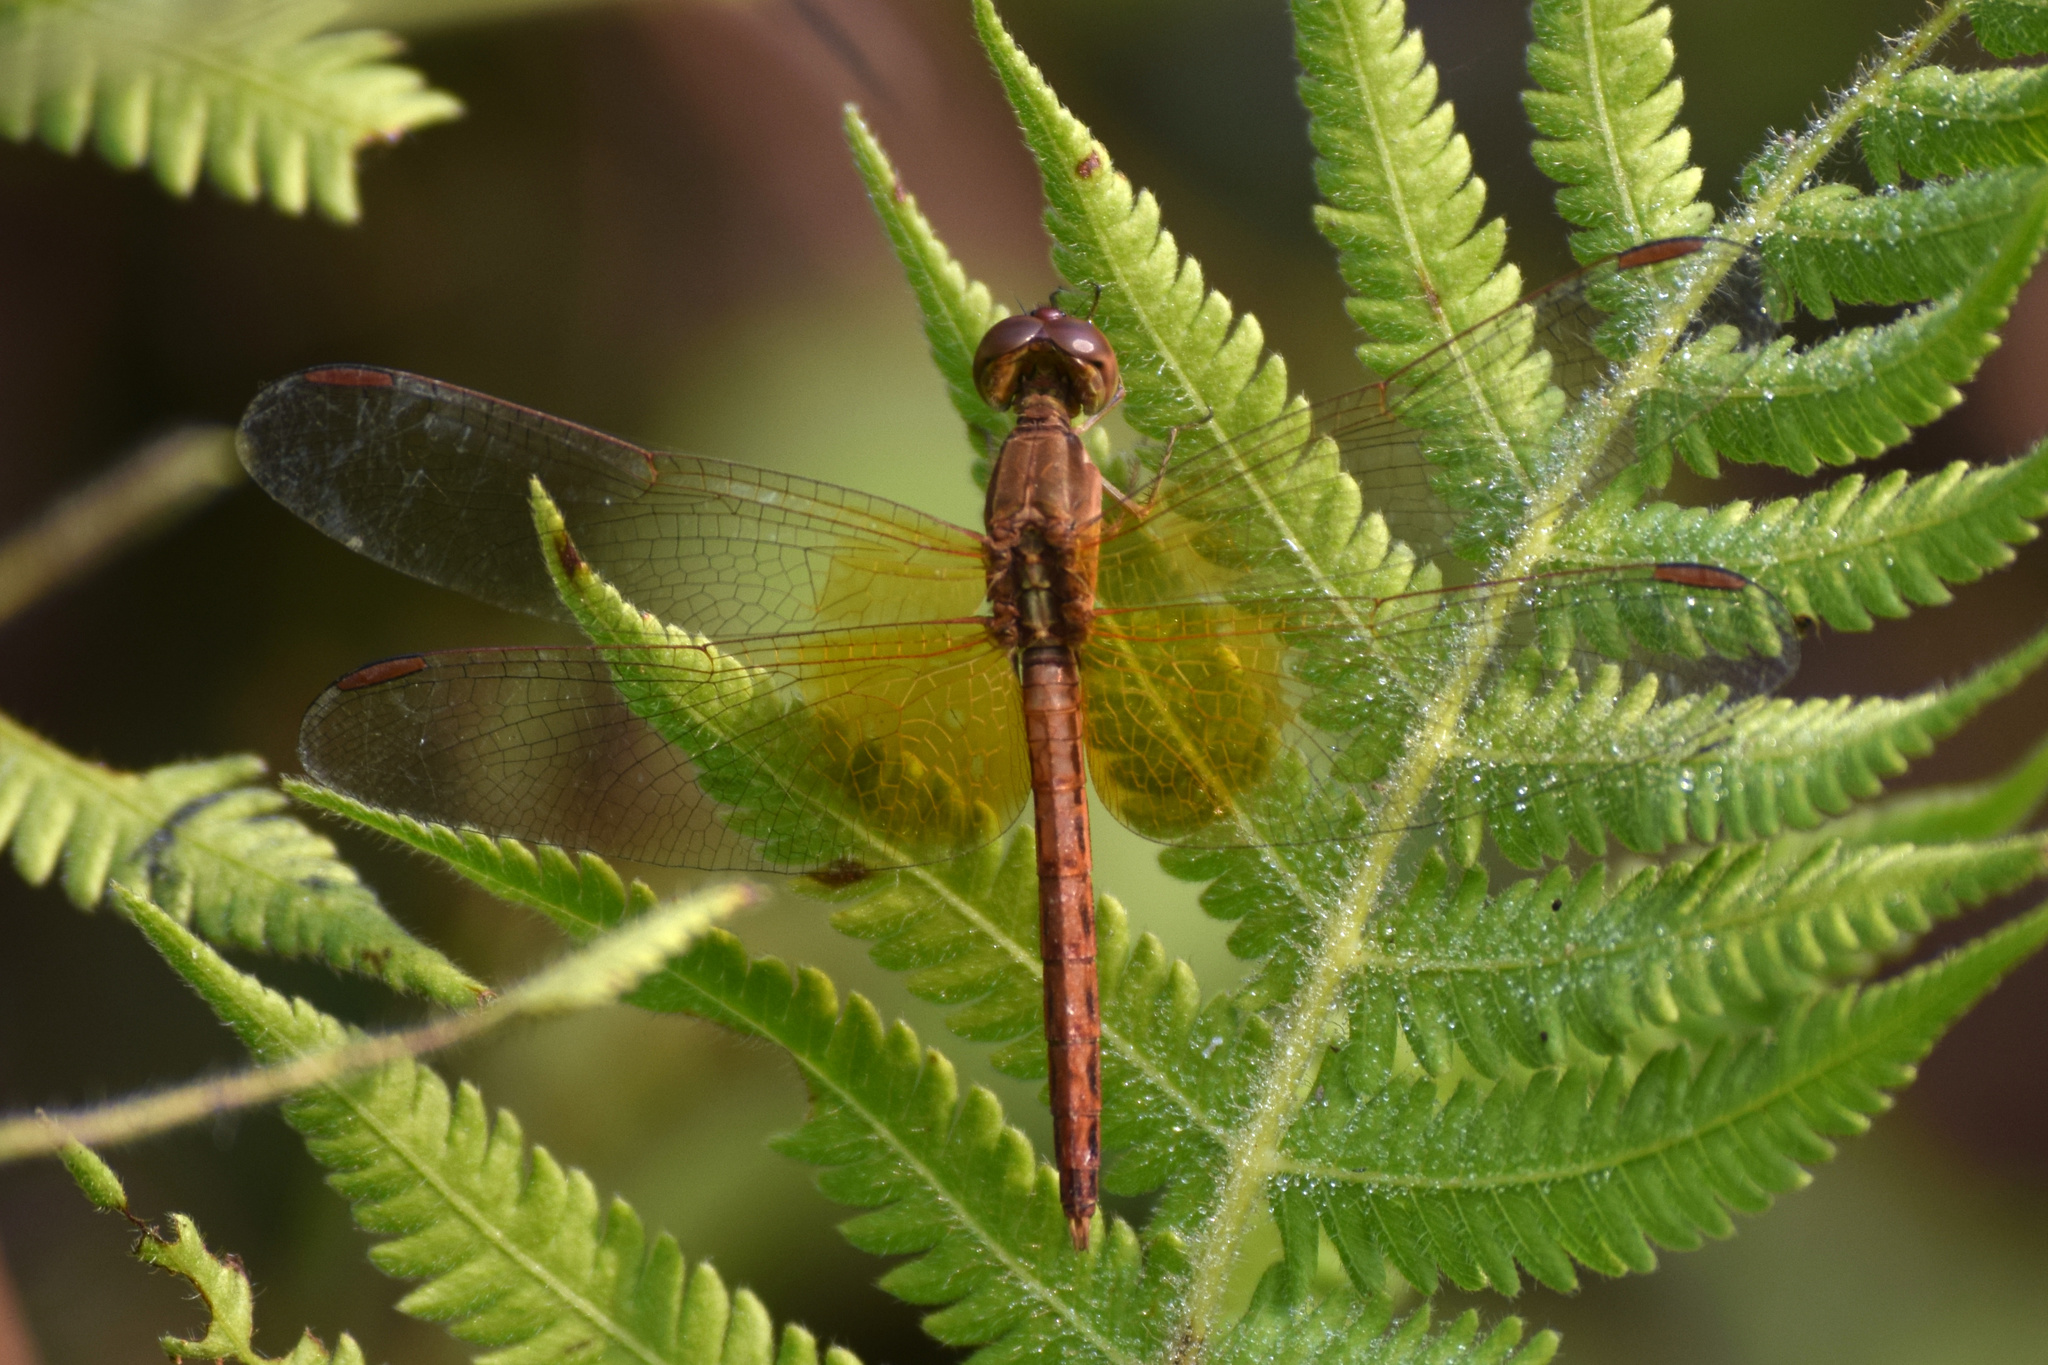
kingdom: Animalia
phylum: Arthropoda
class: Insecta
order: Odonata
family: Libellulidae
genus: Neurothemis
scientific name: Neurothemis intermedia
